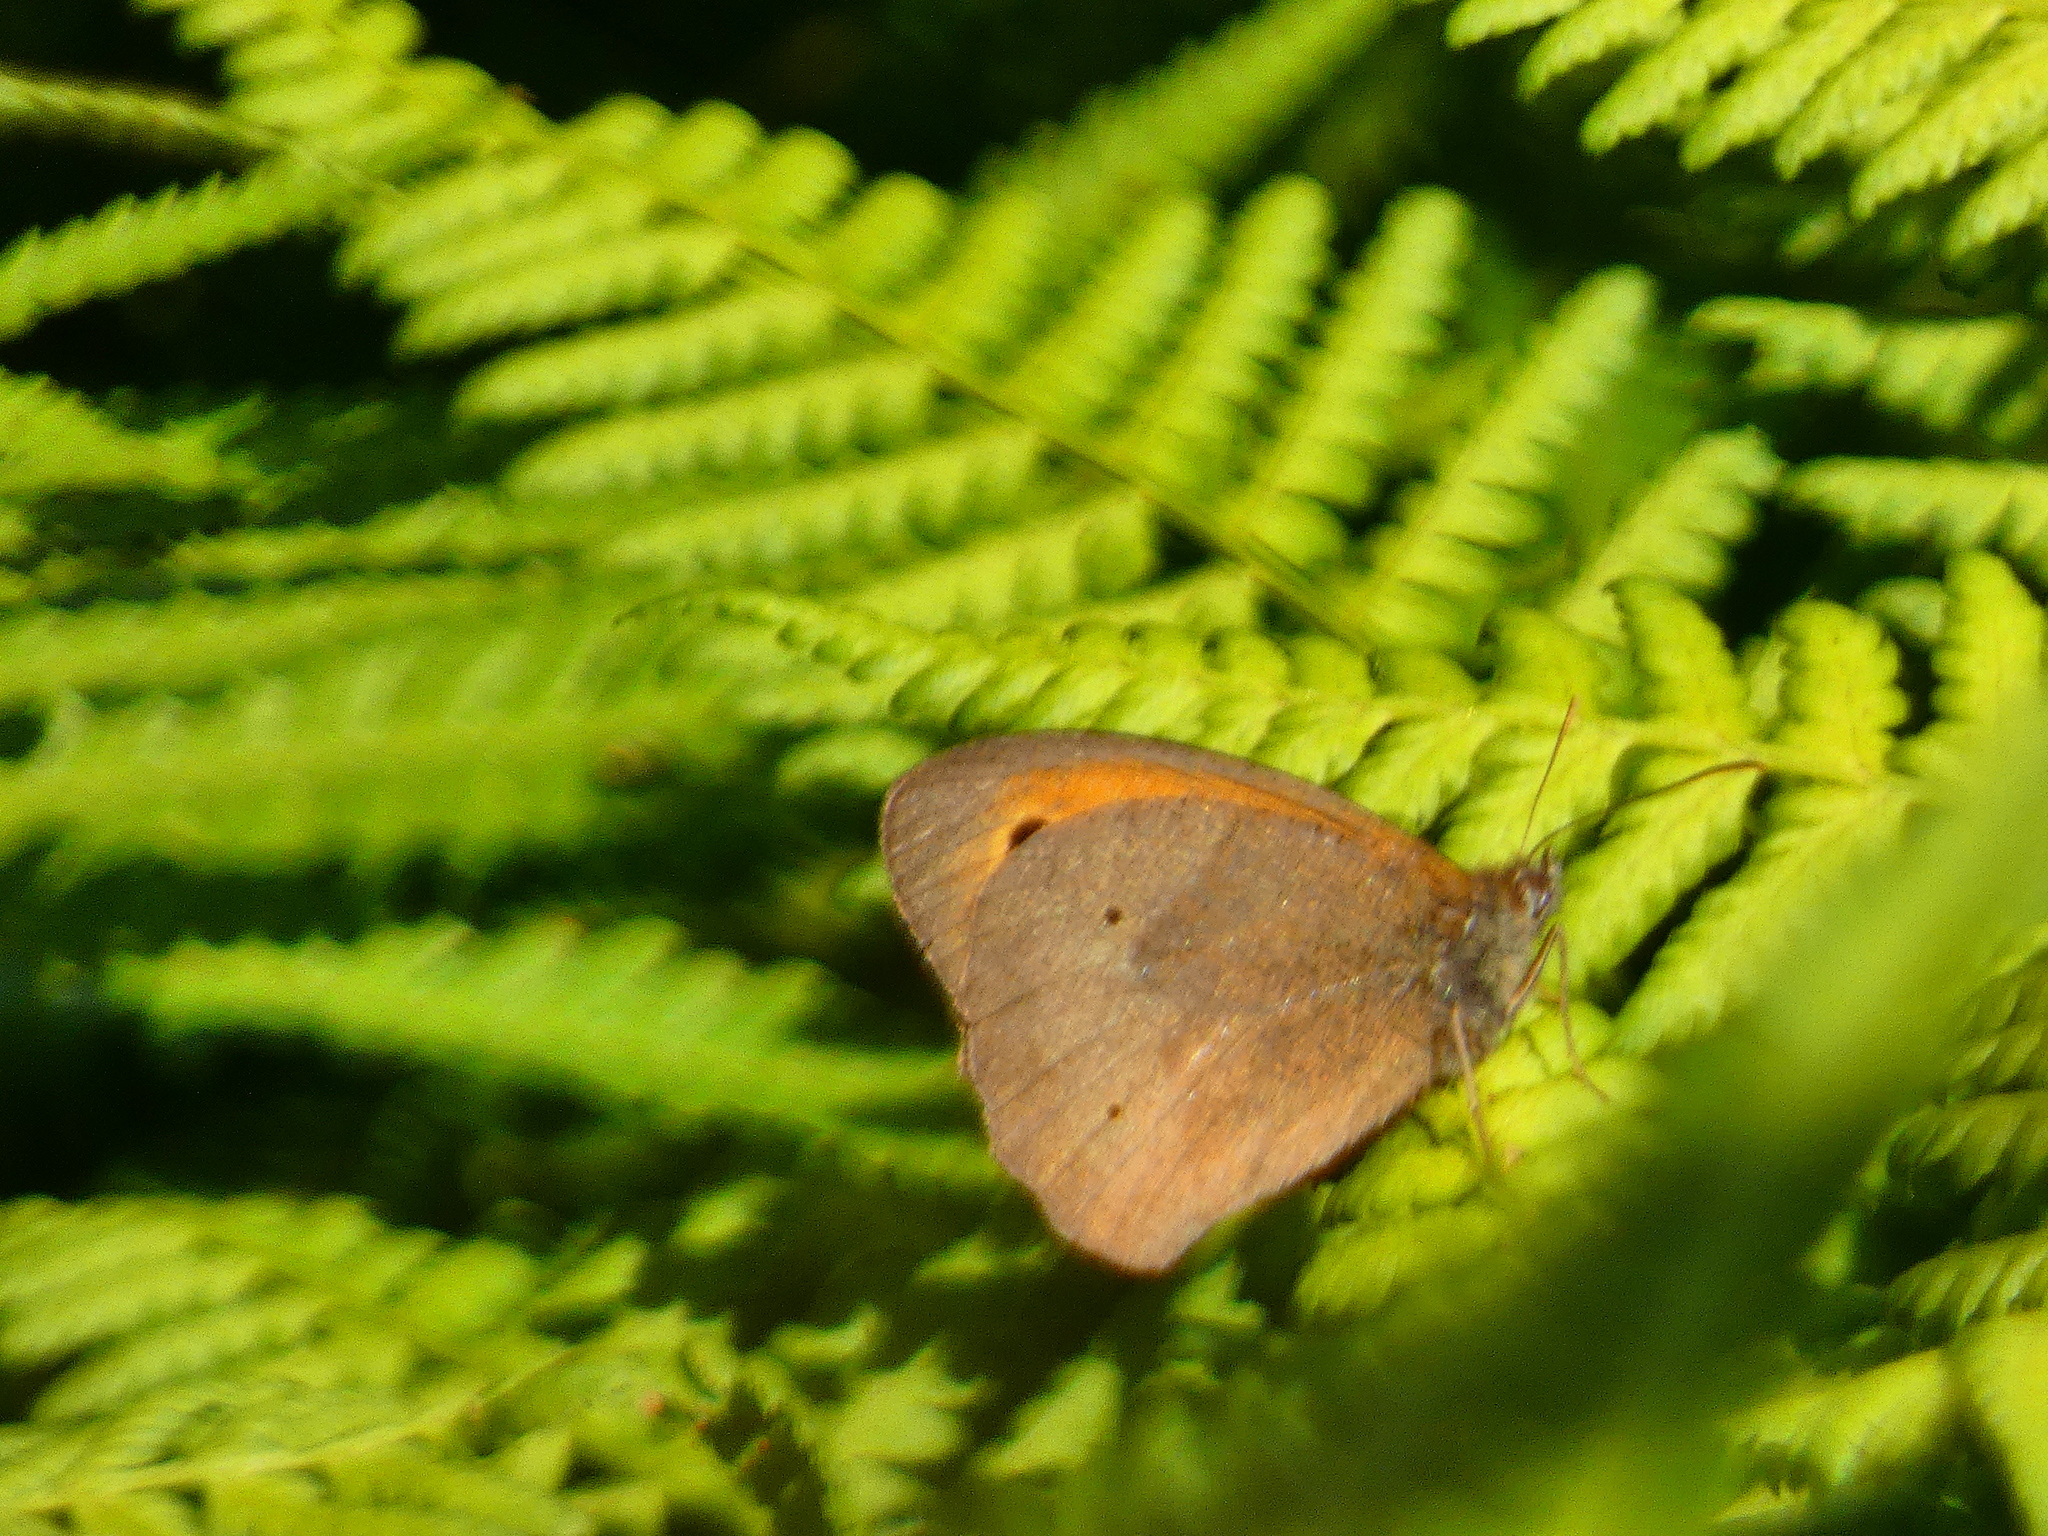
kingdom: Animalia
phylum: Arthropoda
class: Insecta
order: Lepidoptera
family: Nymphalidae
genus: Maniola
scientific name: Maniola jurtina
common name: Meadow brown
